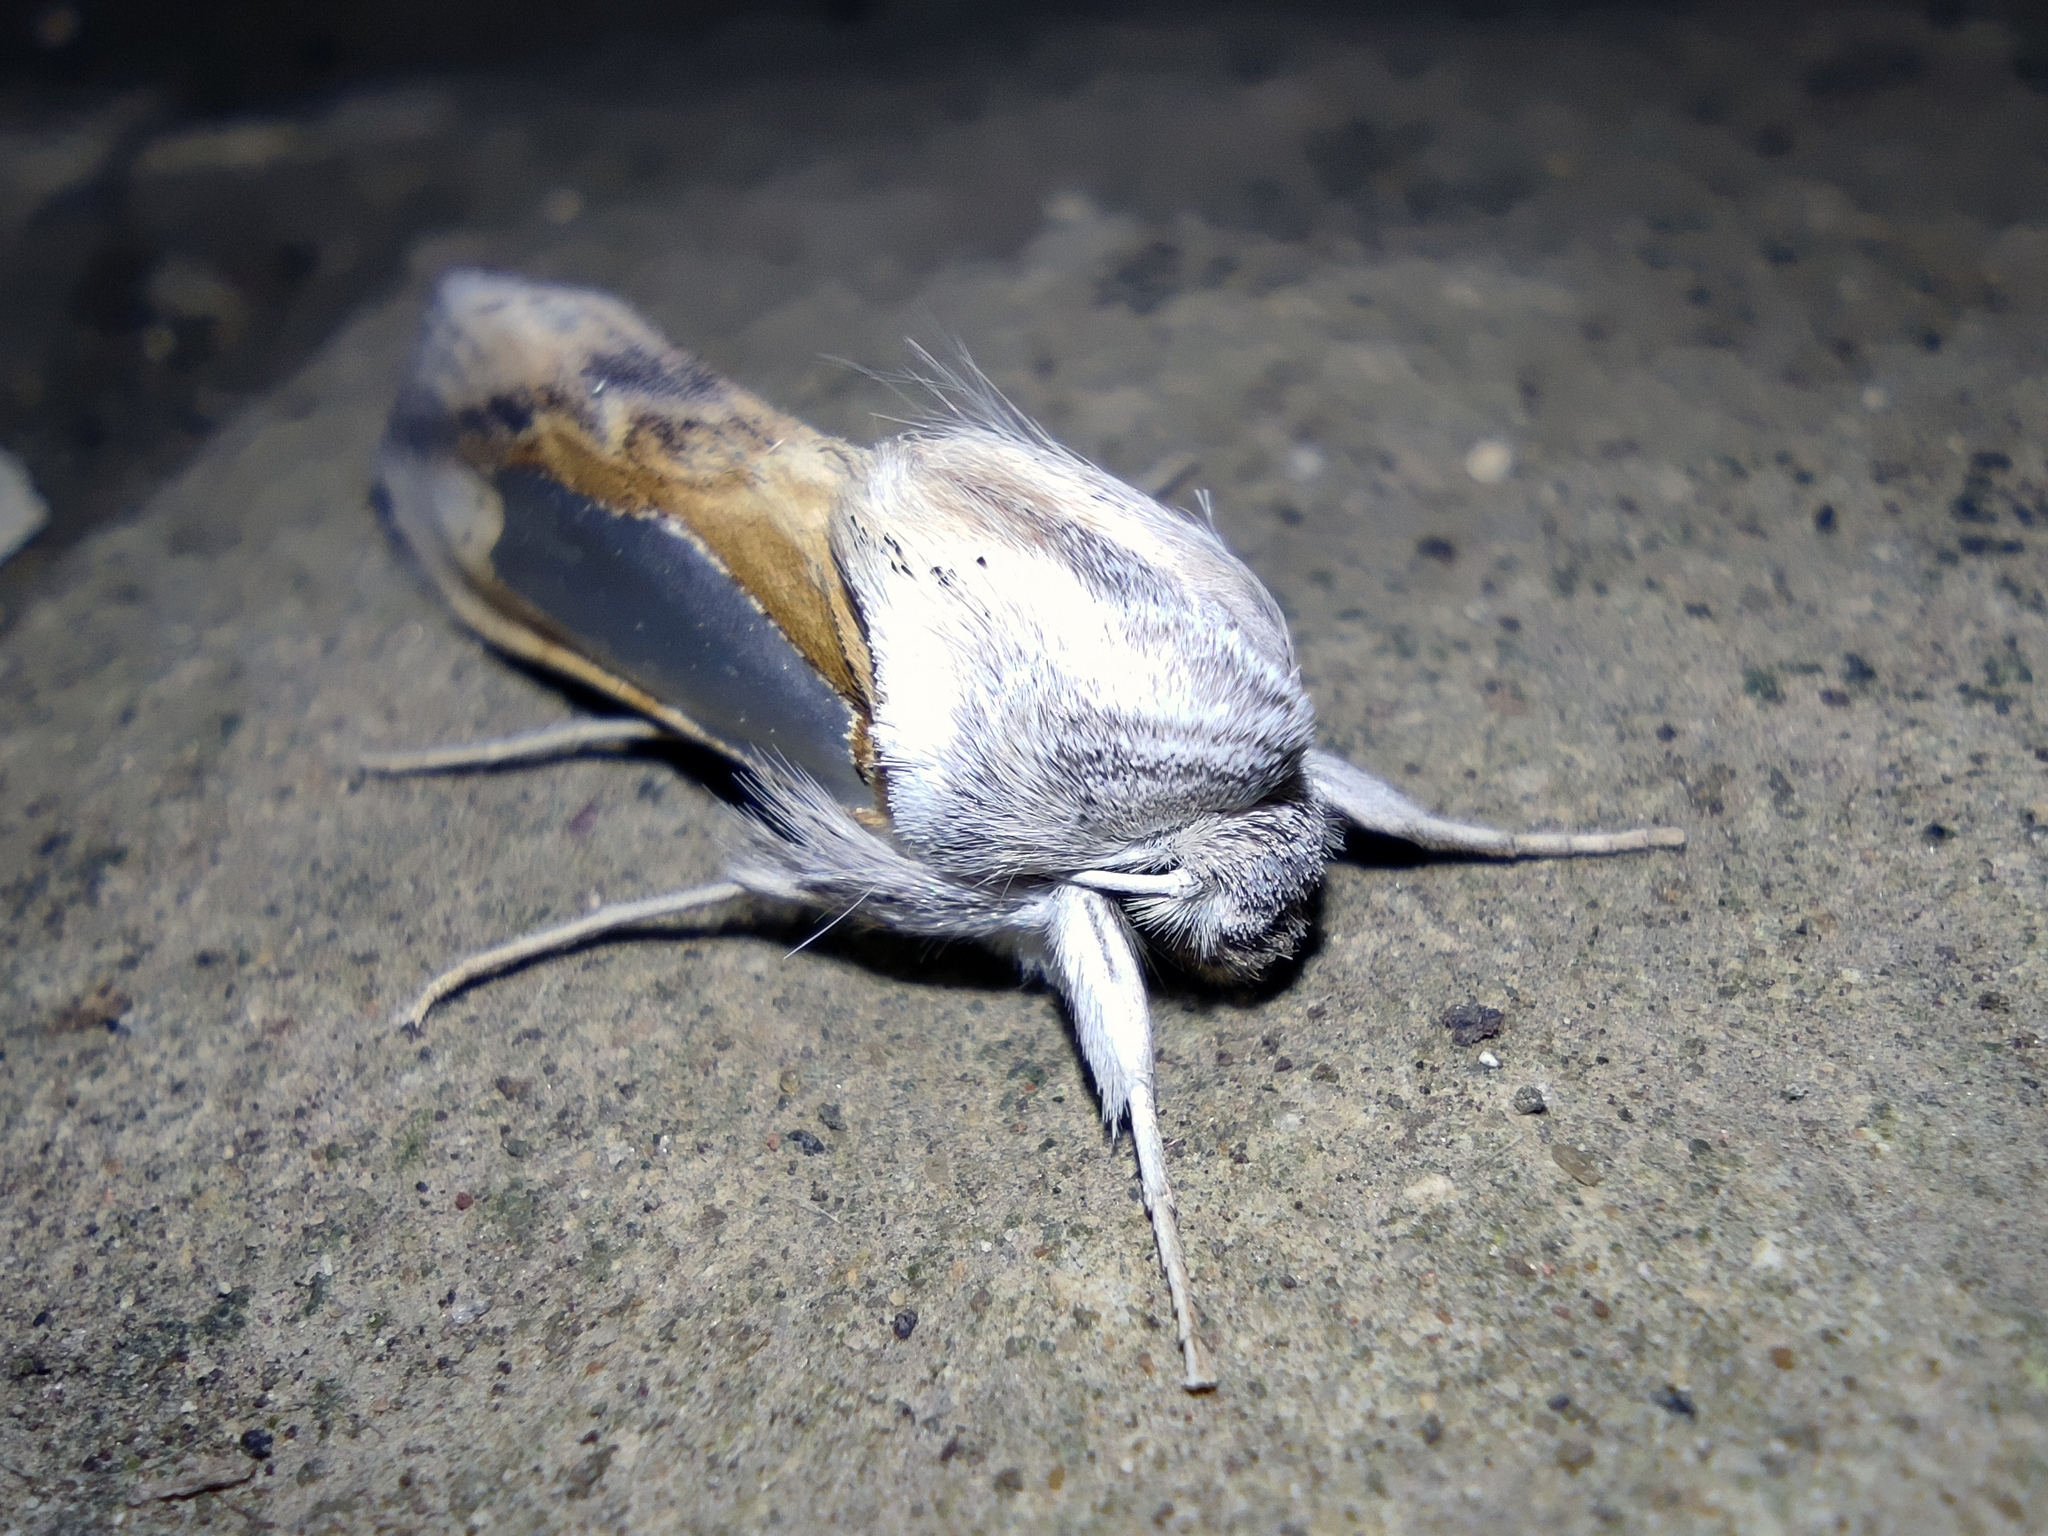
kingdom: Animalia
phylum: Arthropoda
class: Insecta
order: Lepidoptera
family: Noctuidae
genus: Cucullia
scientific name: Cucullia argentina
